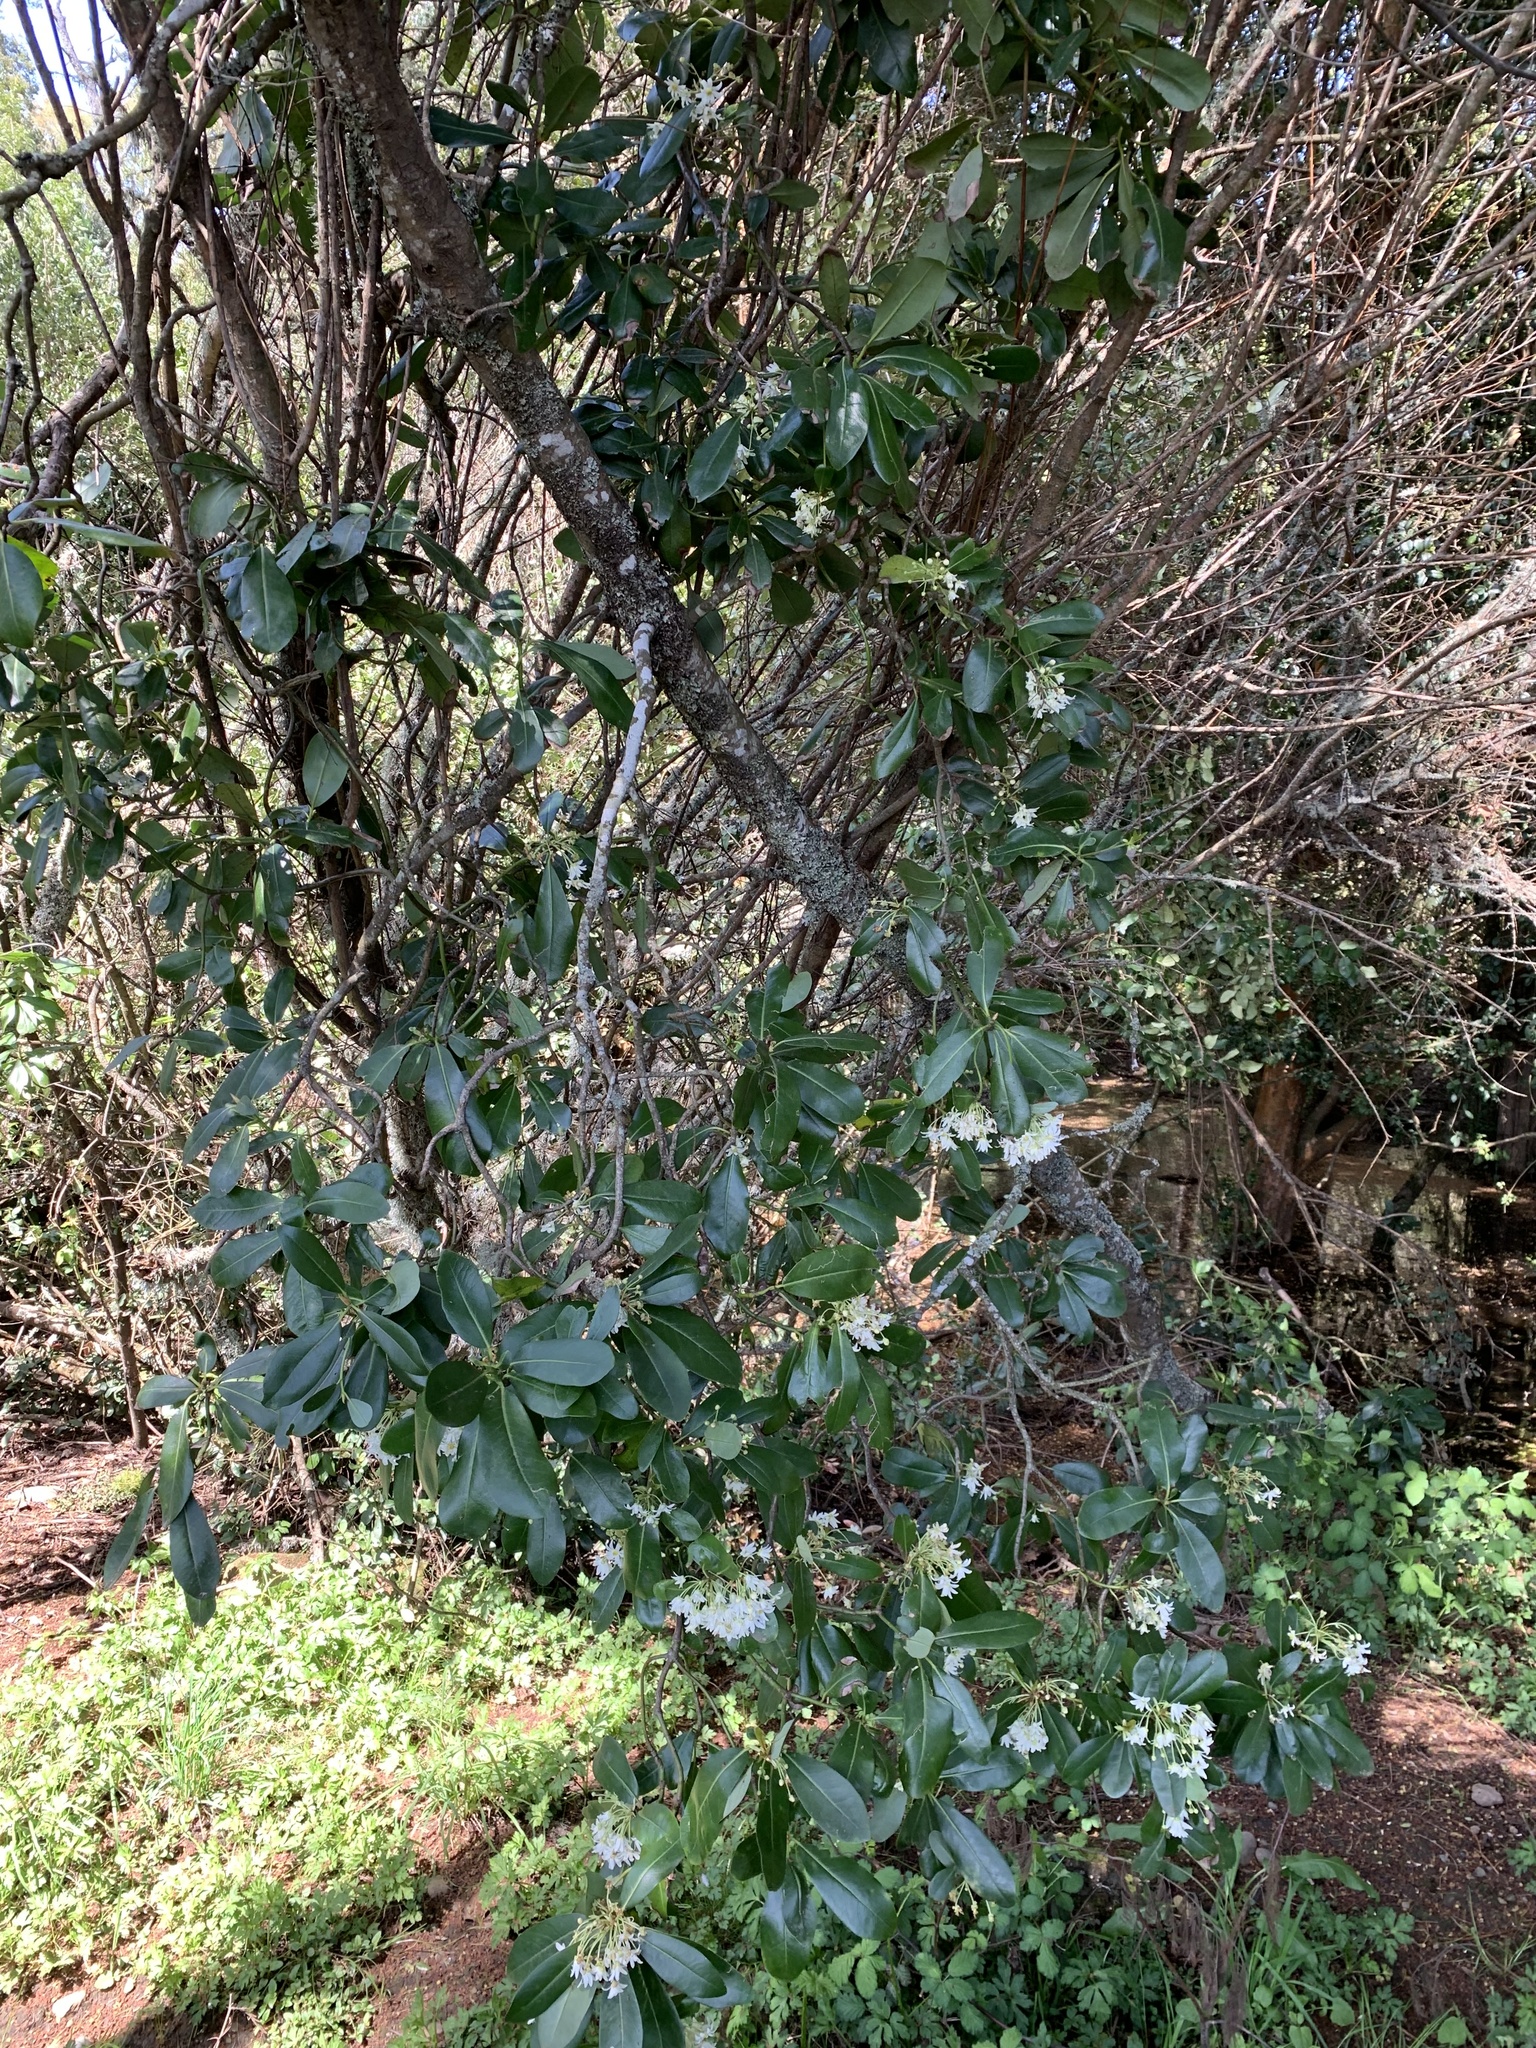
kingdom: Plantae
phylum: Tracheophyta
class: Magnoliopsida
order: Canellales
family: Winteraceae
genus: Drimys
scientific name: Drimys winteri
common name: Winter's-bark
